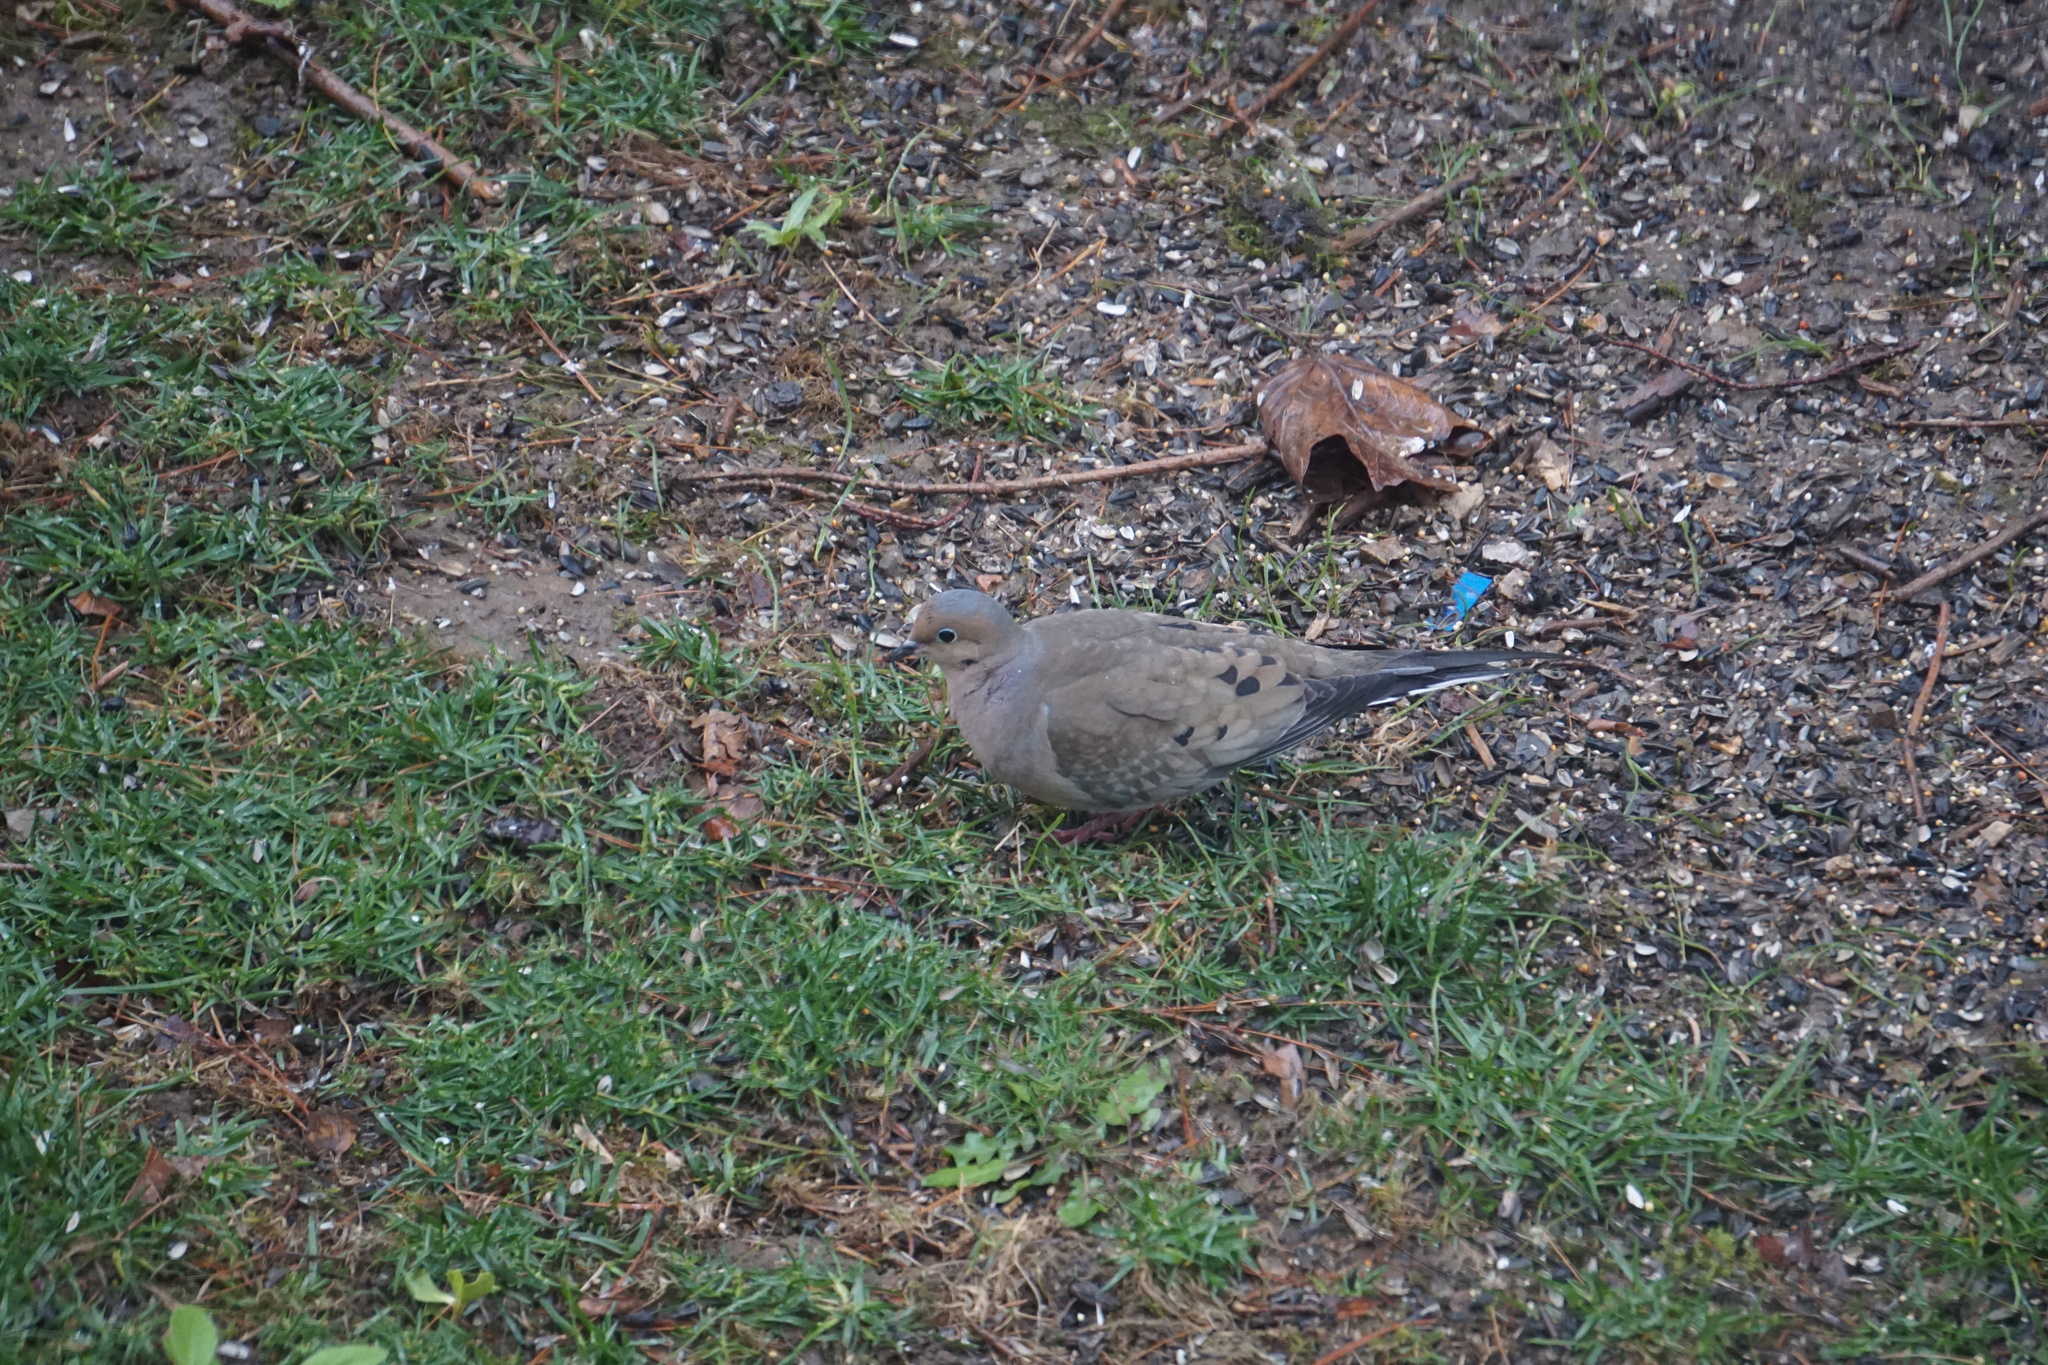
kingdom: Animalia
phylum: Chordata
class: Aves
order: Columbiformes
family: Columbidae
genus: Zenaida
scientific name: Zenaida macroura
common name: Mourning dove
